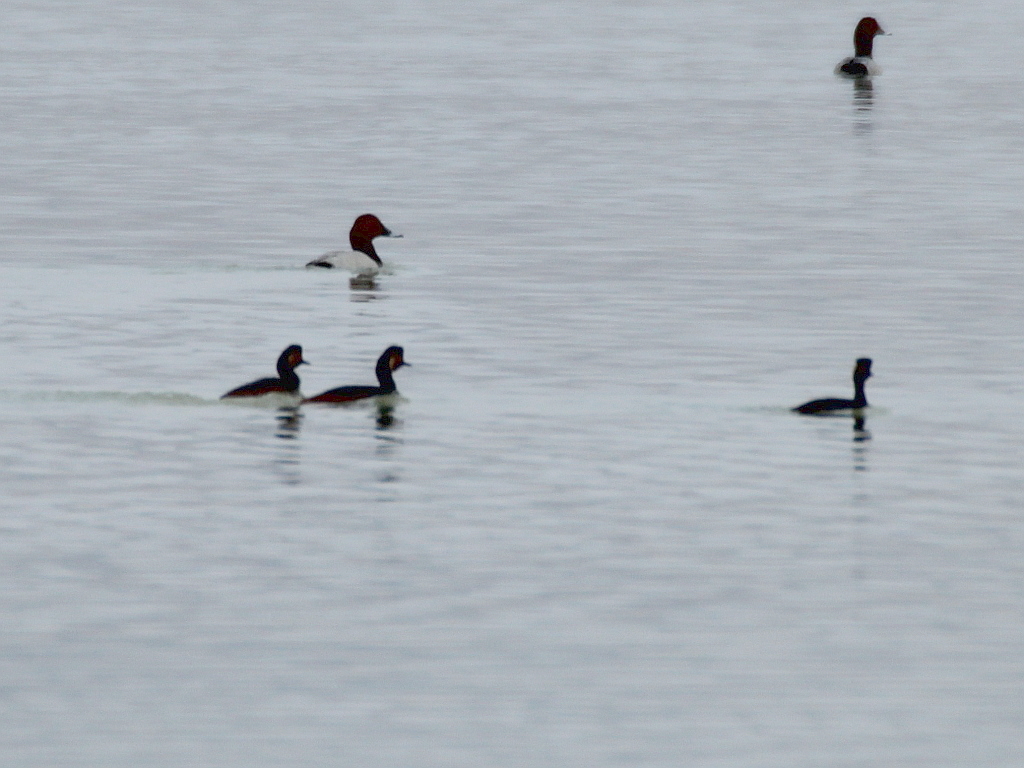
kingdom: Animalia
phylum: Chordata
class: Aves
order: Podicipediformes
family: Podicipedidae
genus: Podiceps
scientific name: Podiceps nigricollis
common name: Black-necked grebe
